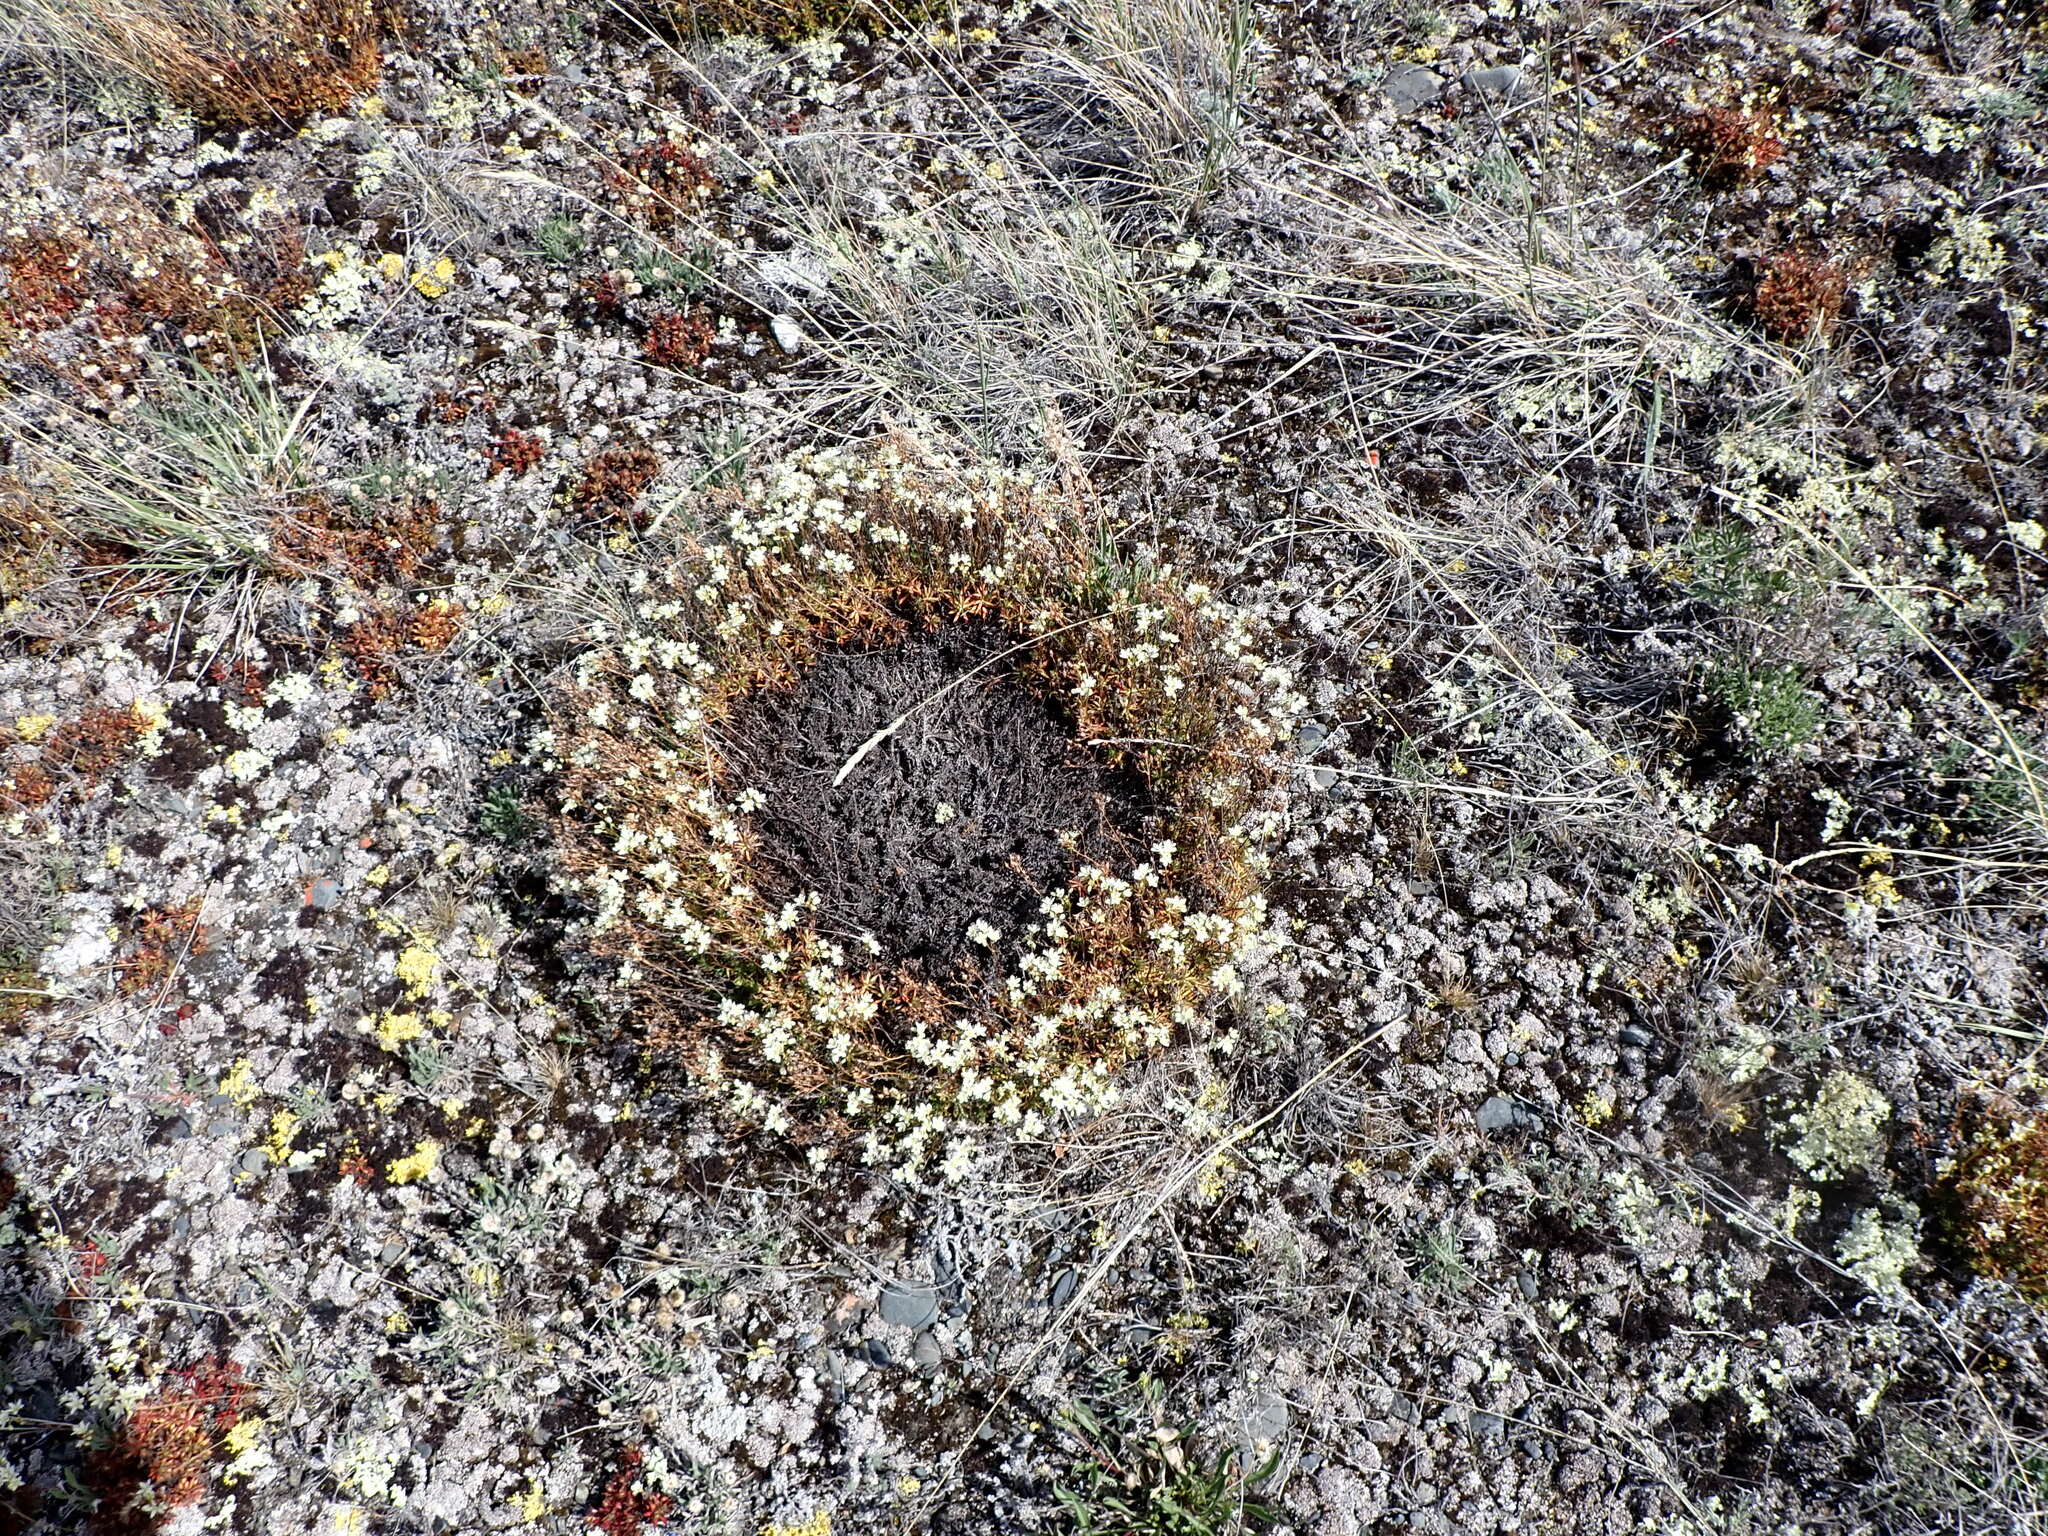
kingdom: Plantae
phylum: Tracheophyta
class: Magnoliopsida
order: Saxifragales
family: Saxifragaceae
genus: Saxifraga
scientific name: Saxifraga tricuspidata
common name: Prickly saxifrage
